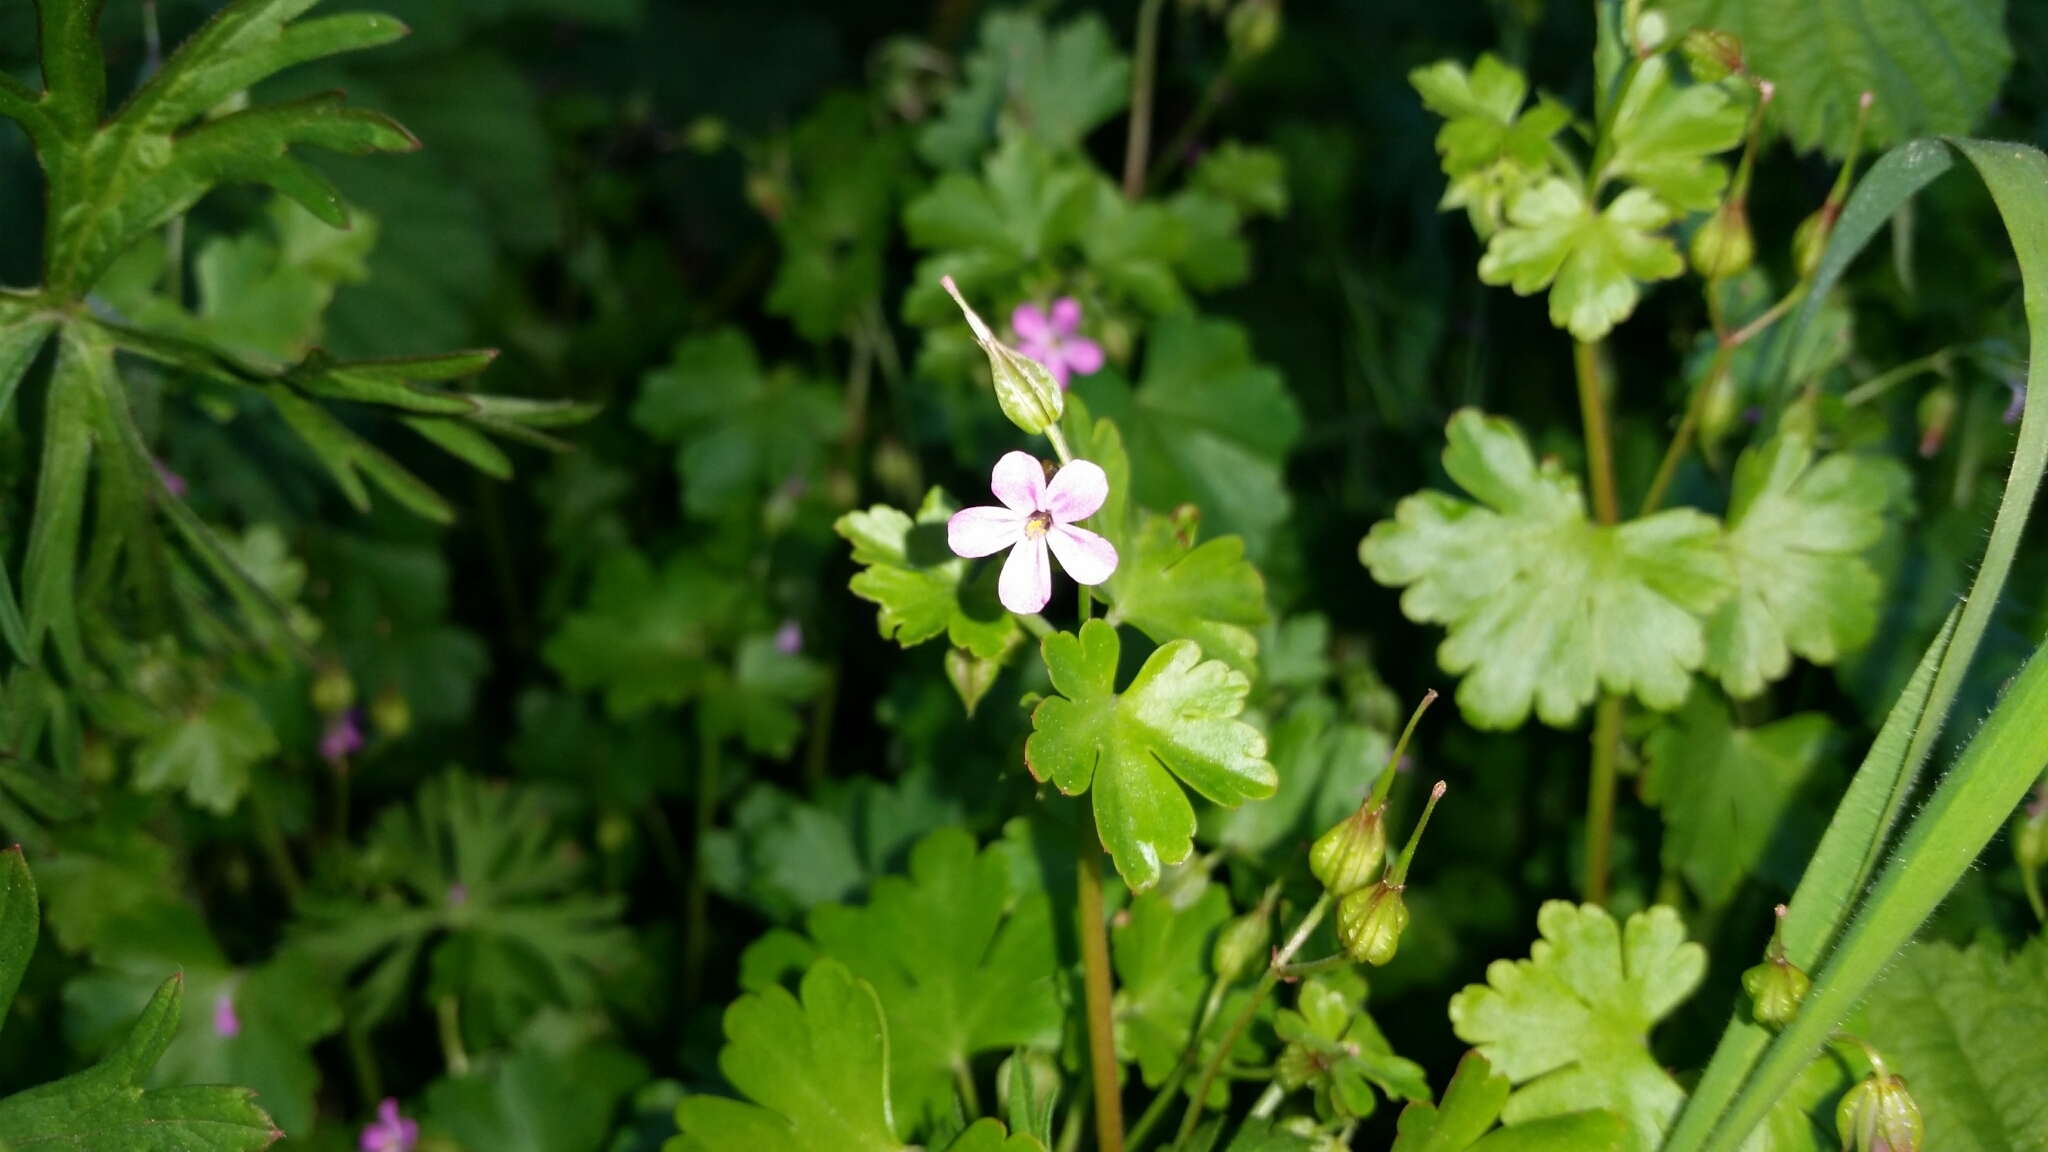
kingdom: Plantae
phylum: Tracheophyta
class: Magnoliopsida
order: Geraniales
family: Geraniaceae
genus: Geranium
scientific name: Geranium lucidum
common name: Shining crane's-bill
